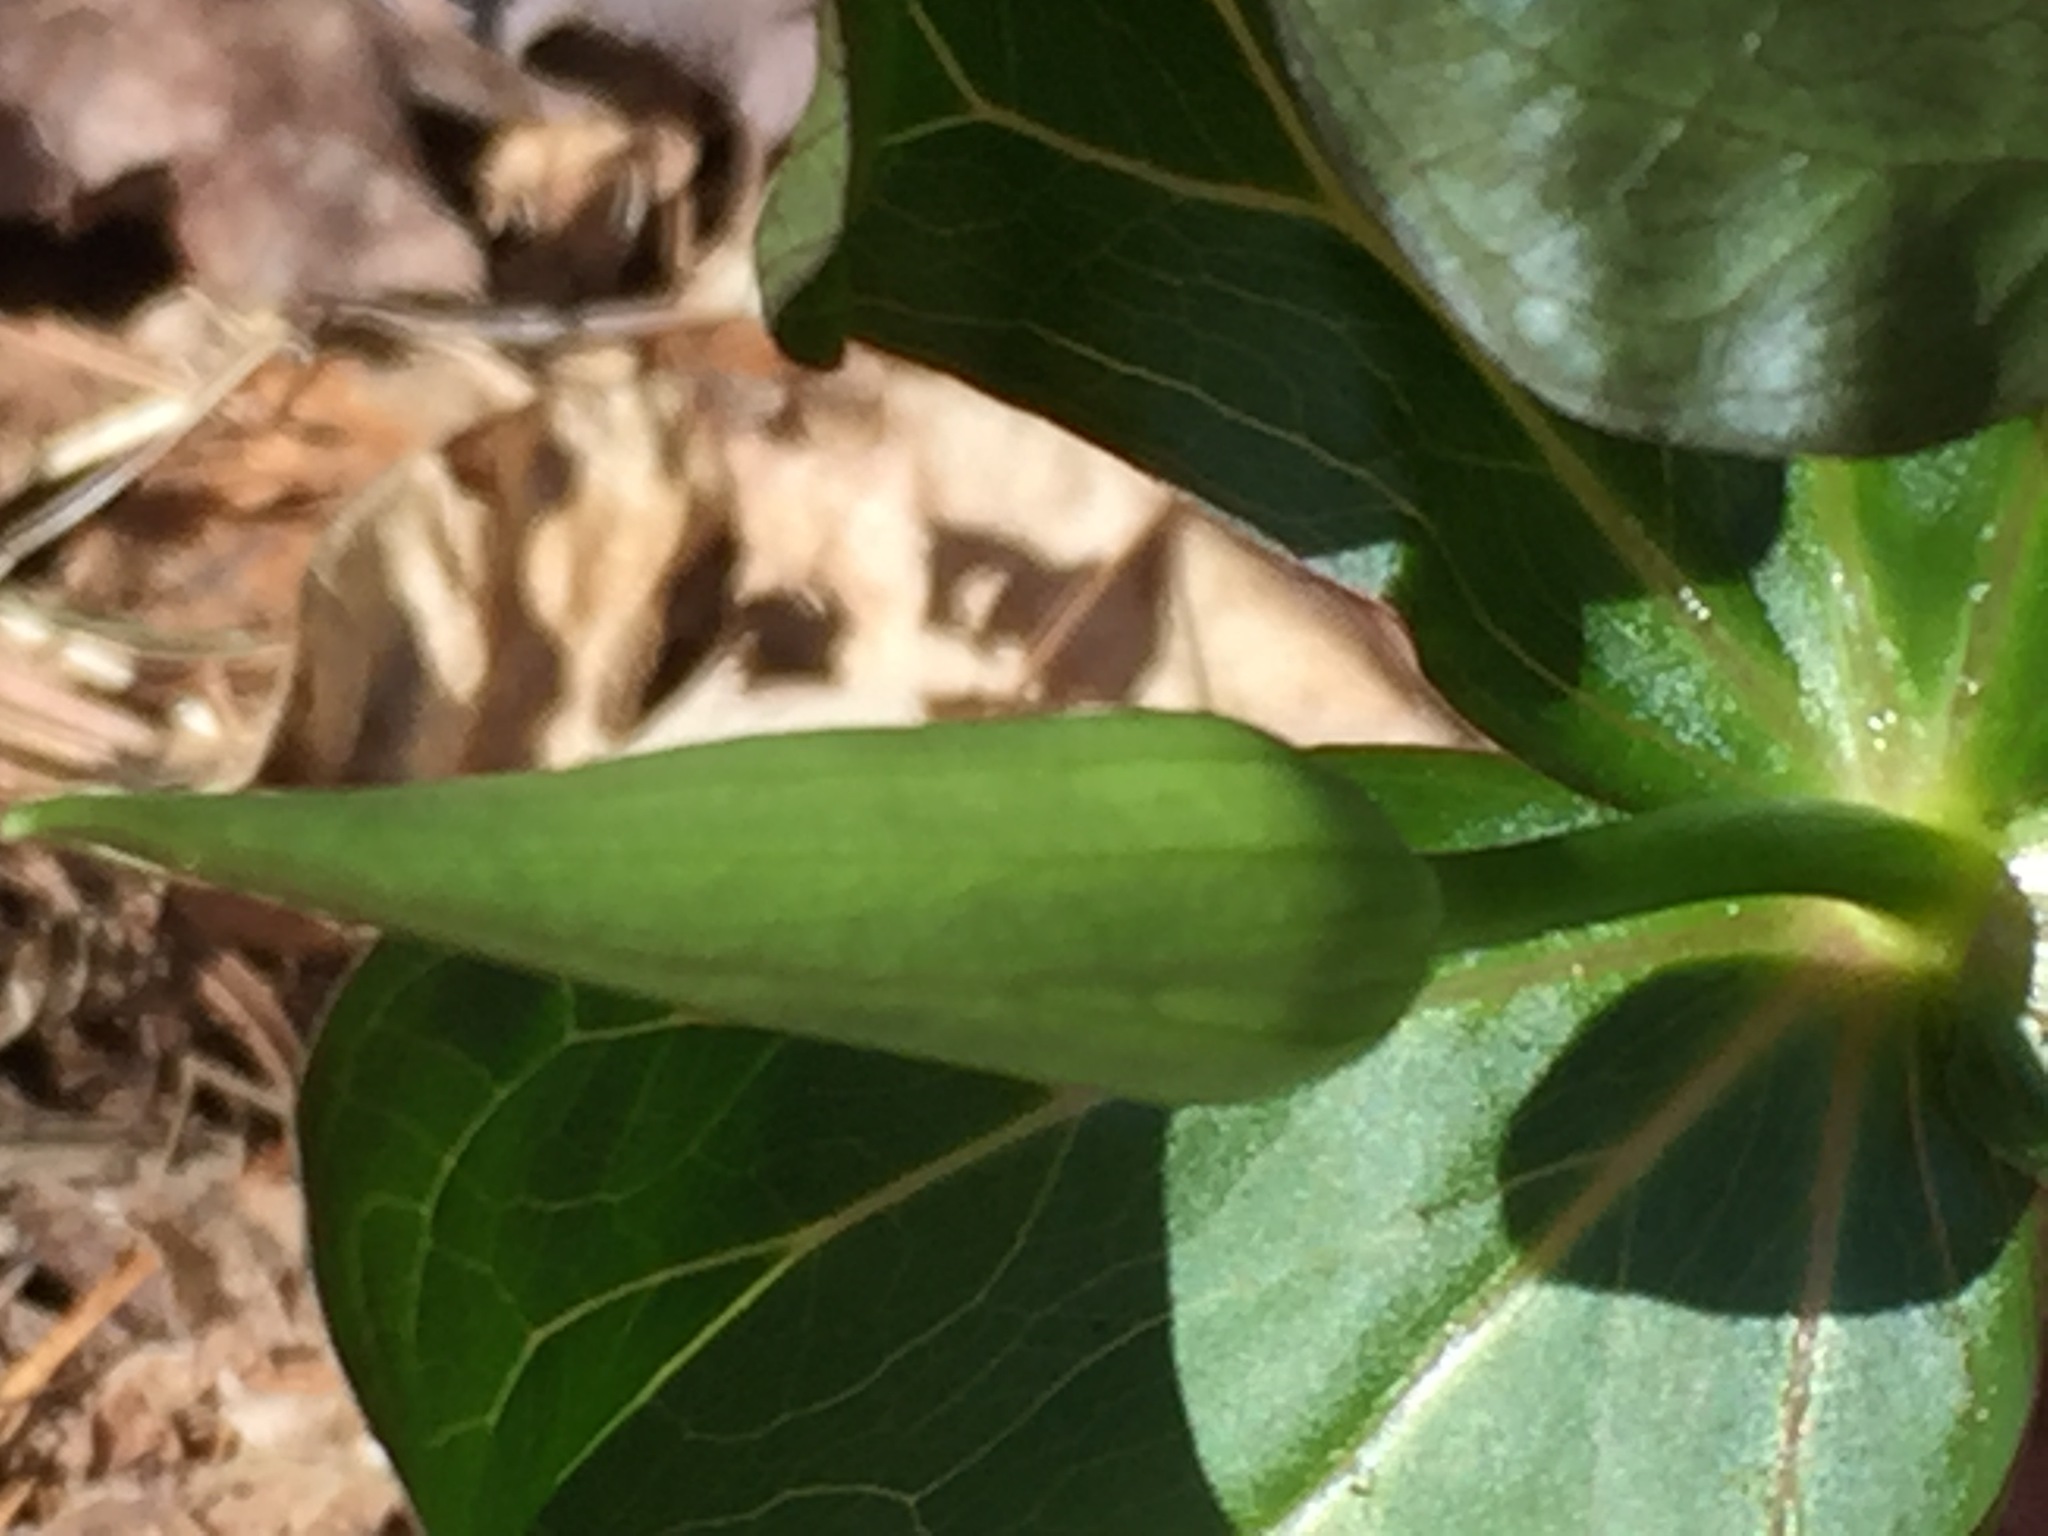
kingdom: Plantae
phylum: Tracheophyta
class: Liliopsida
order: Liliales
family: Melanthiaceae
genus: Trillium
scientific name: Trillium erectum
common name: Purple trillium
